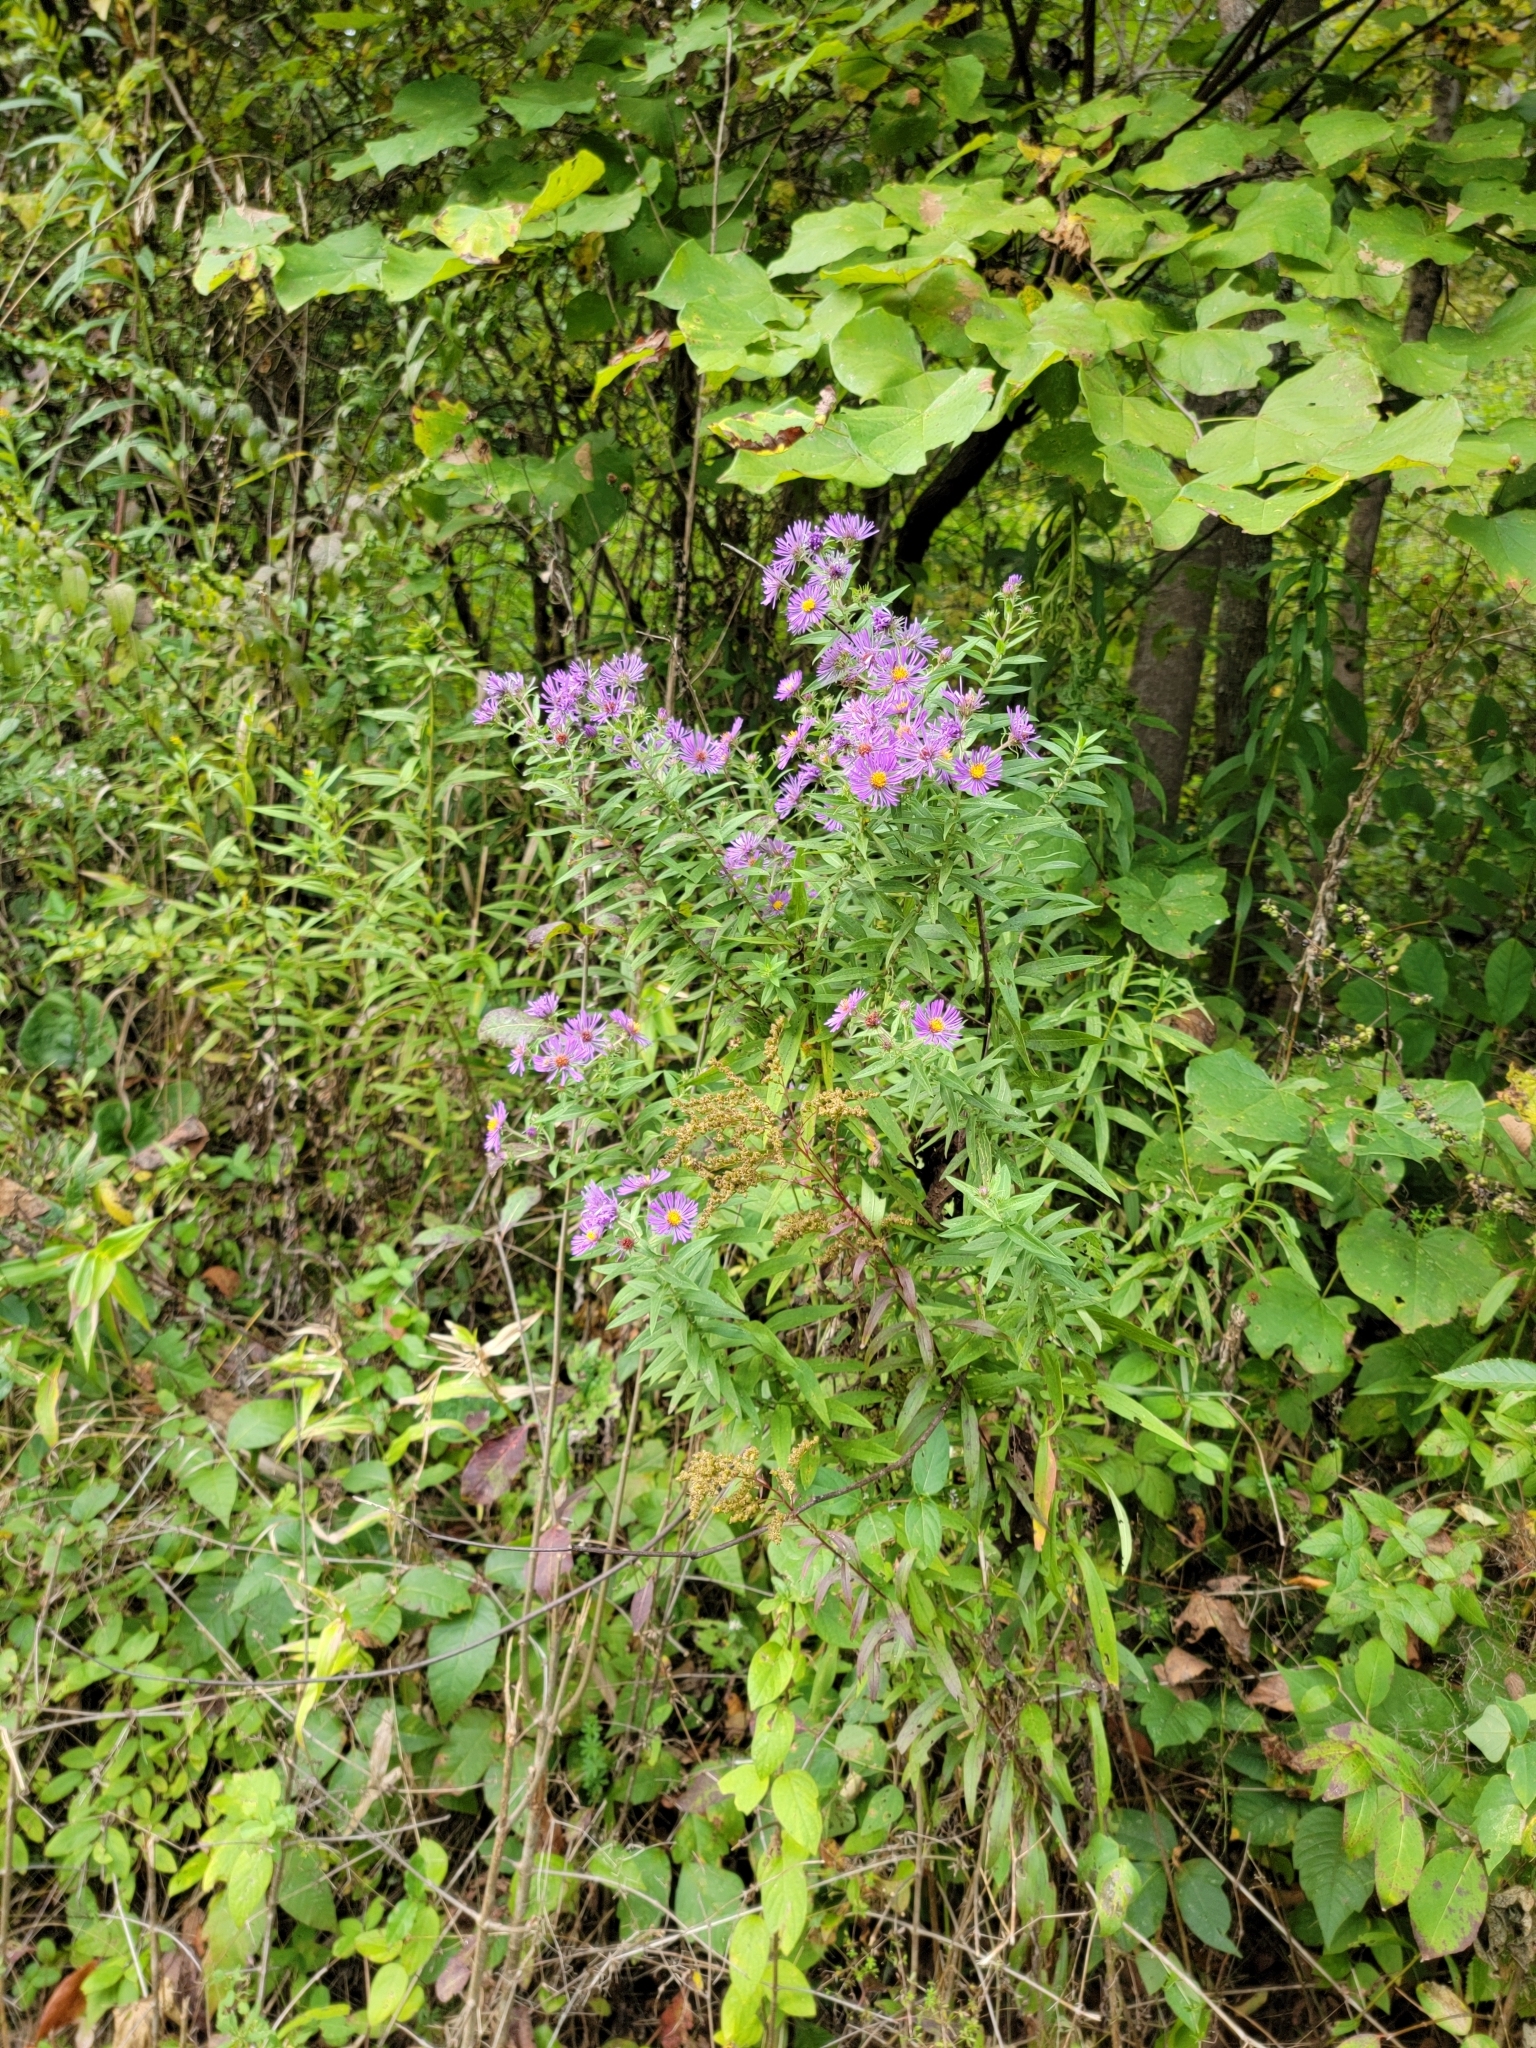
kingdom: Plantae
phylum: Tracheophyta
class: Magnoliopsida
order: Asterales
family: Asteraceae
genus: Symphyotrichum
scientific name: Symphyotrichum novae-angliae
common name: Michaelmas daisy
